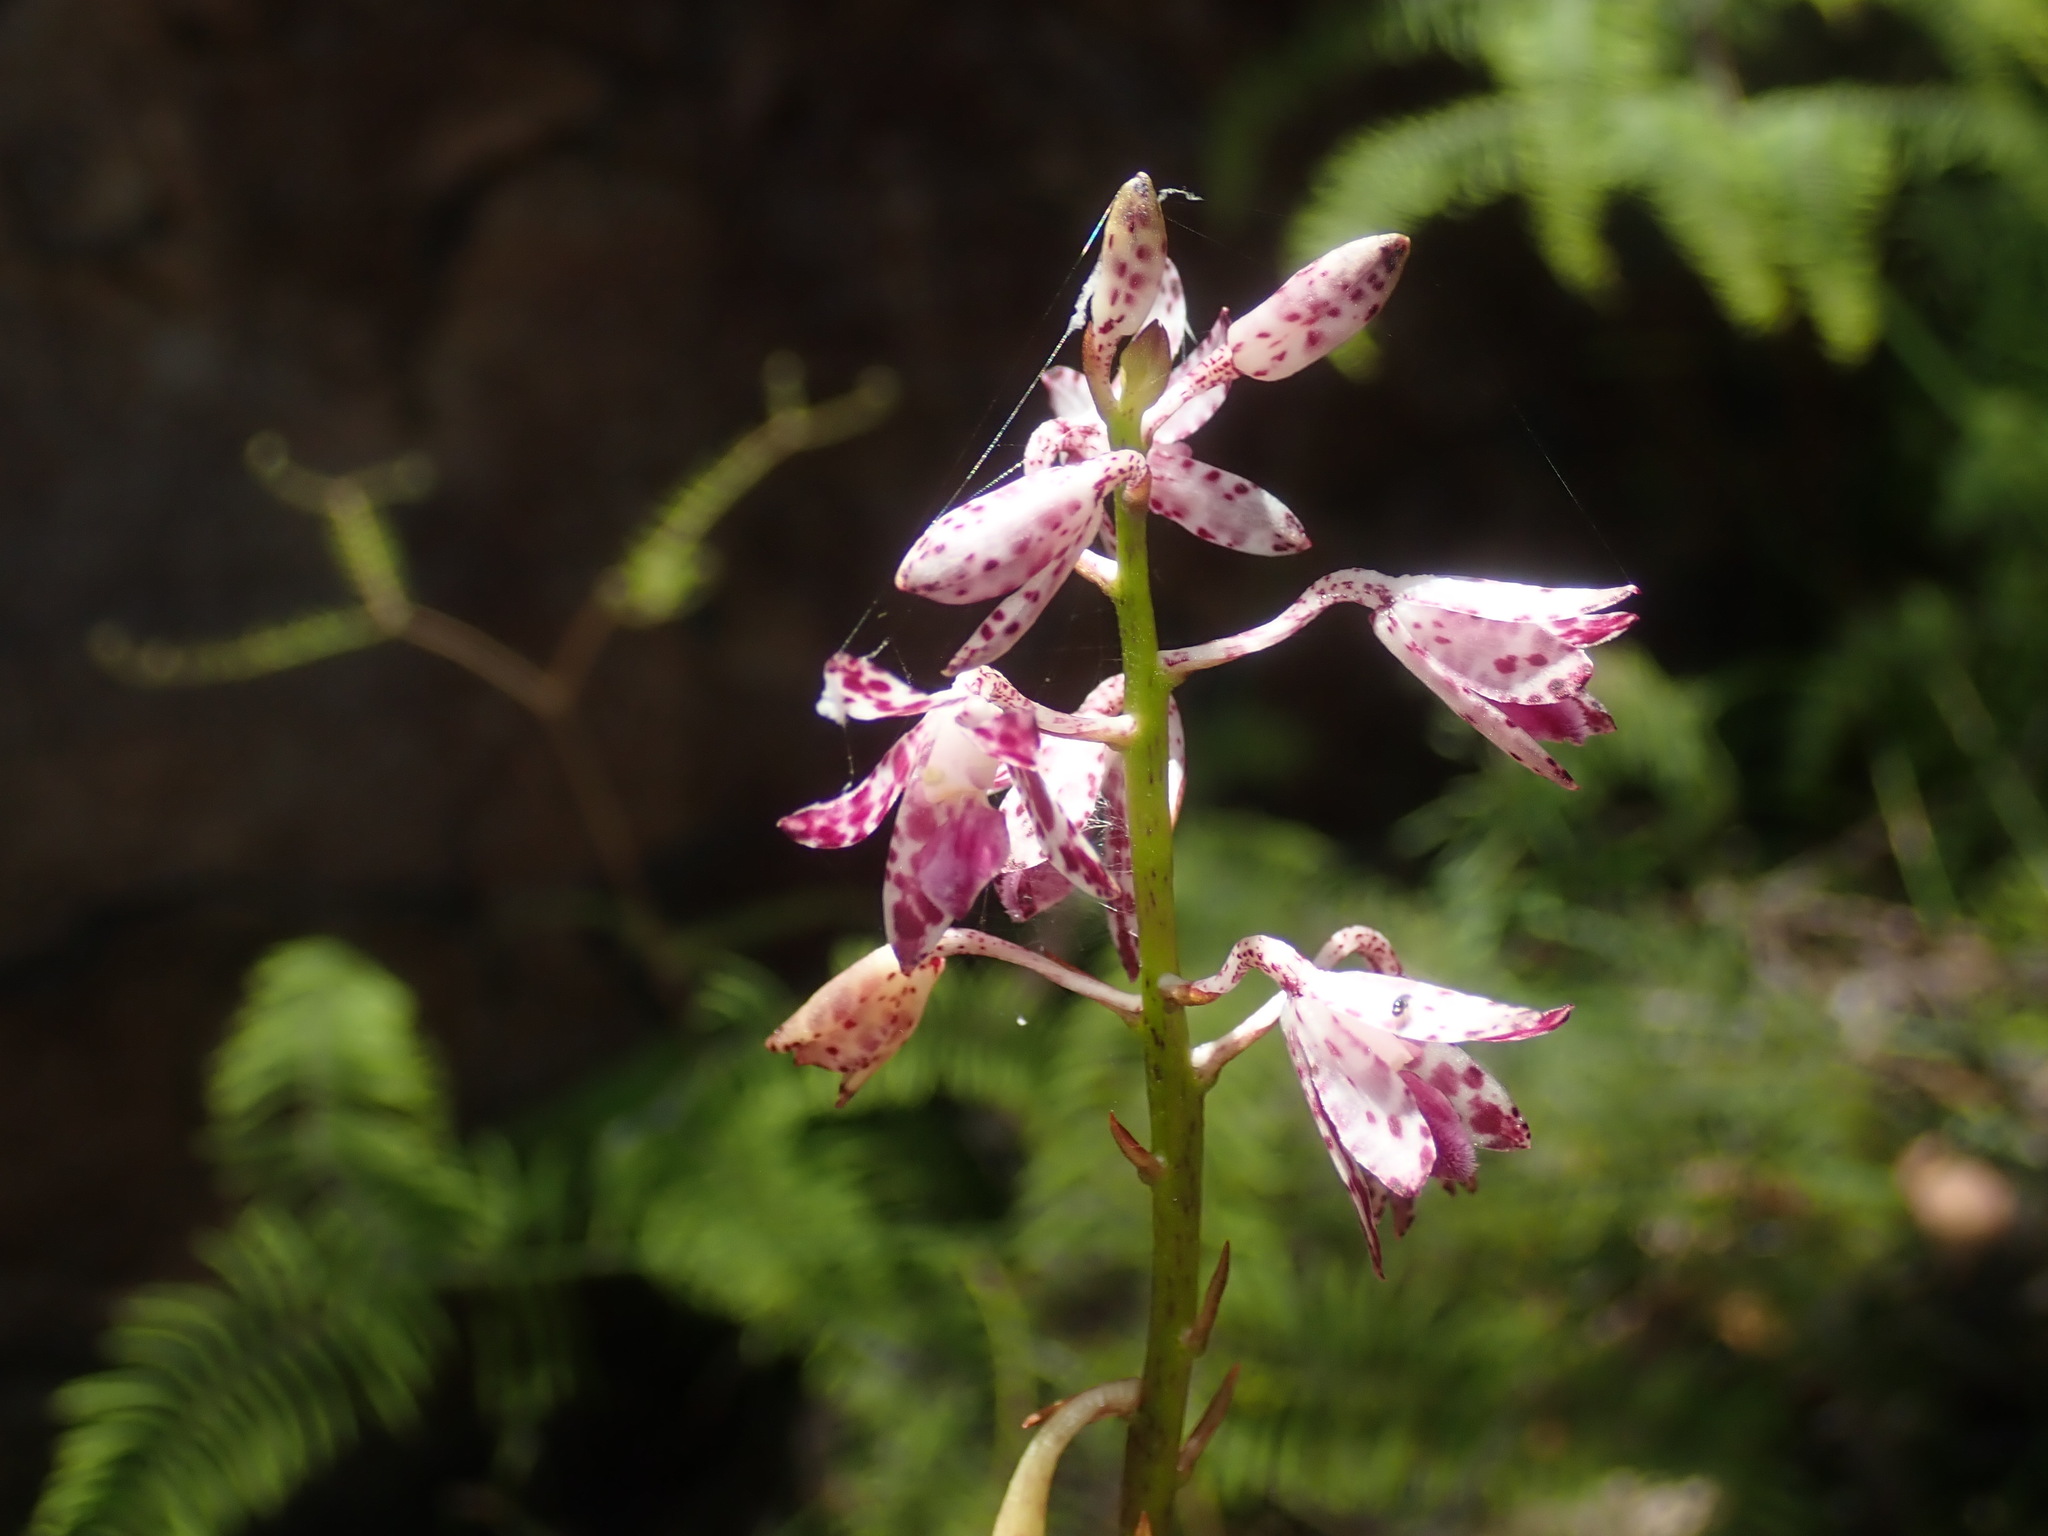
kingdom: Plantae
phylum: Tracheophyta
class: Liliopsida
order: Asparagales
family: Orchidaceae
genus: Dipodium
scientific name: Dipodium variegatum
